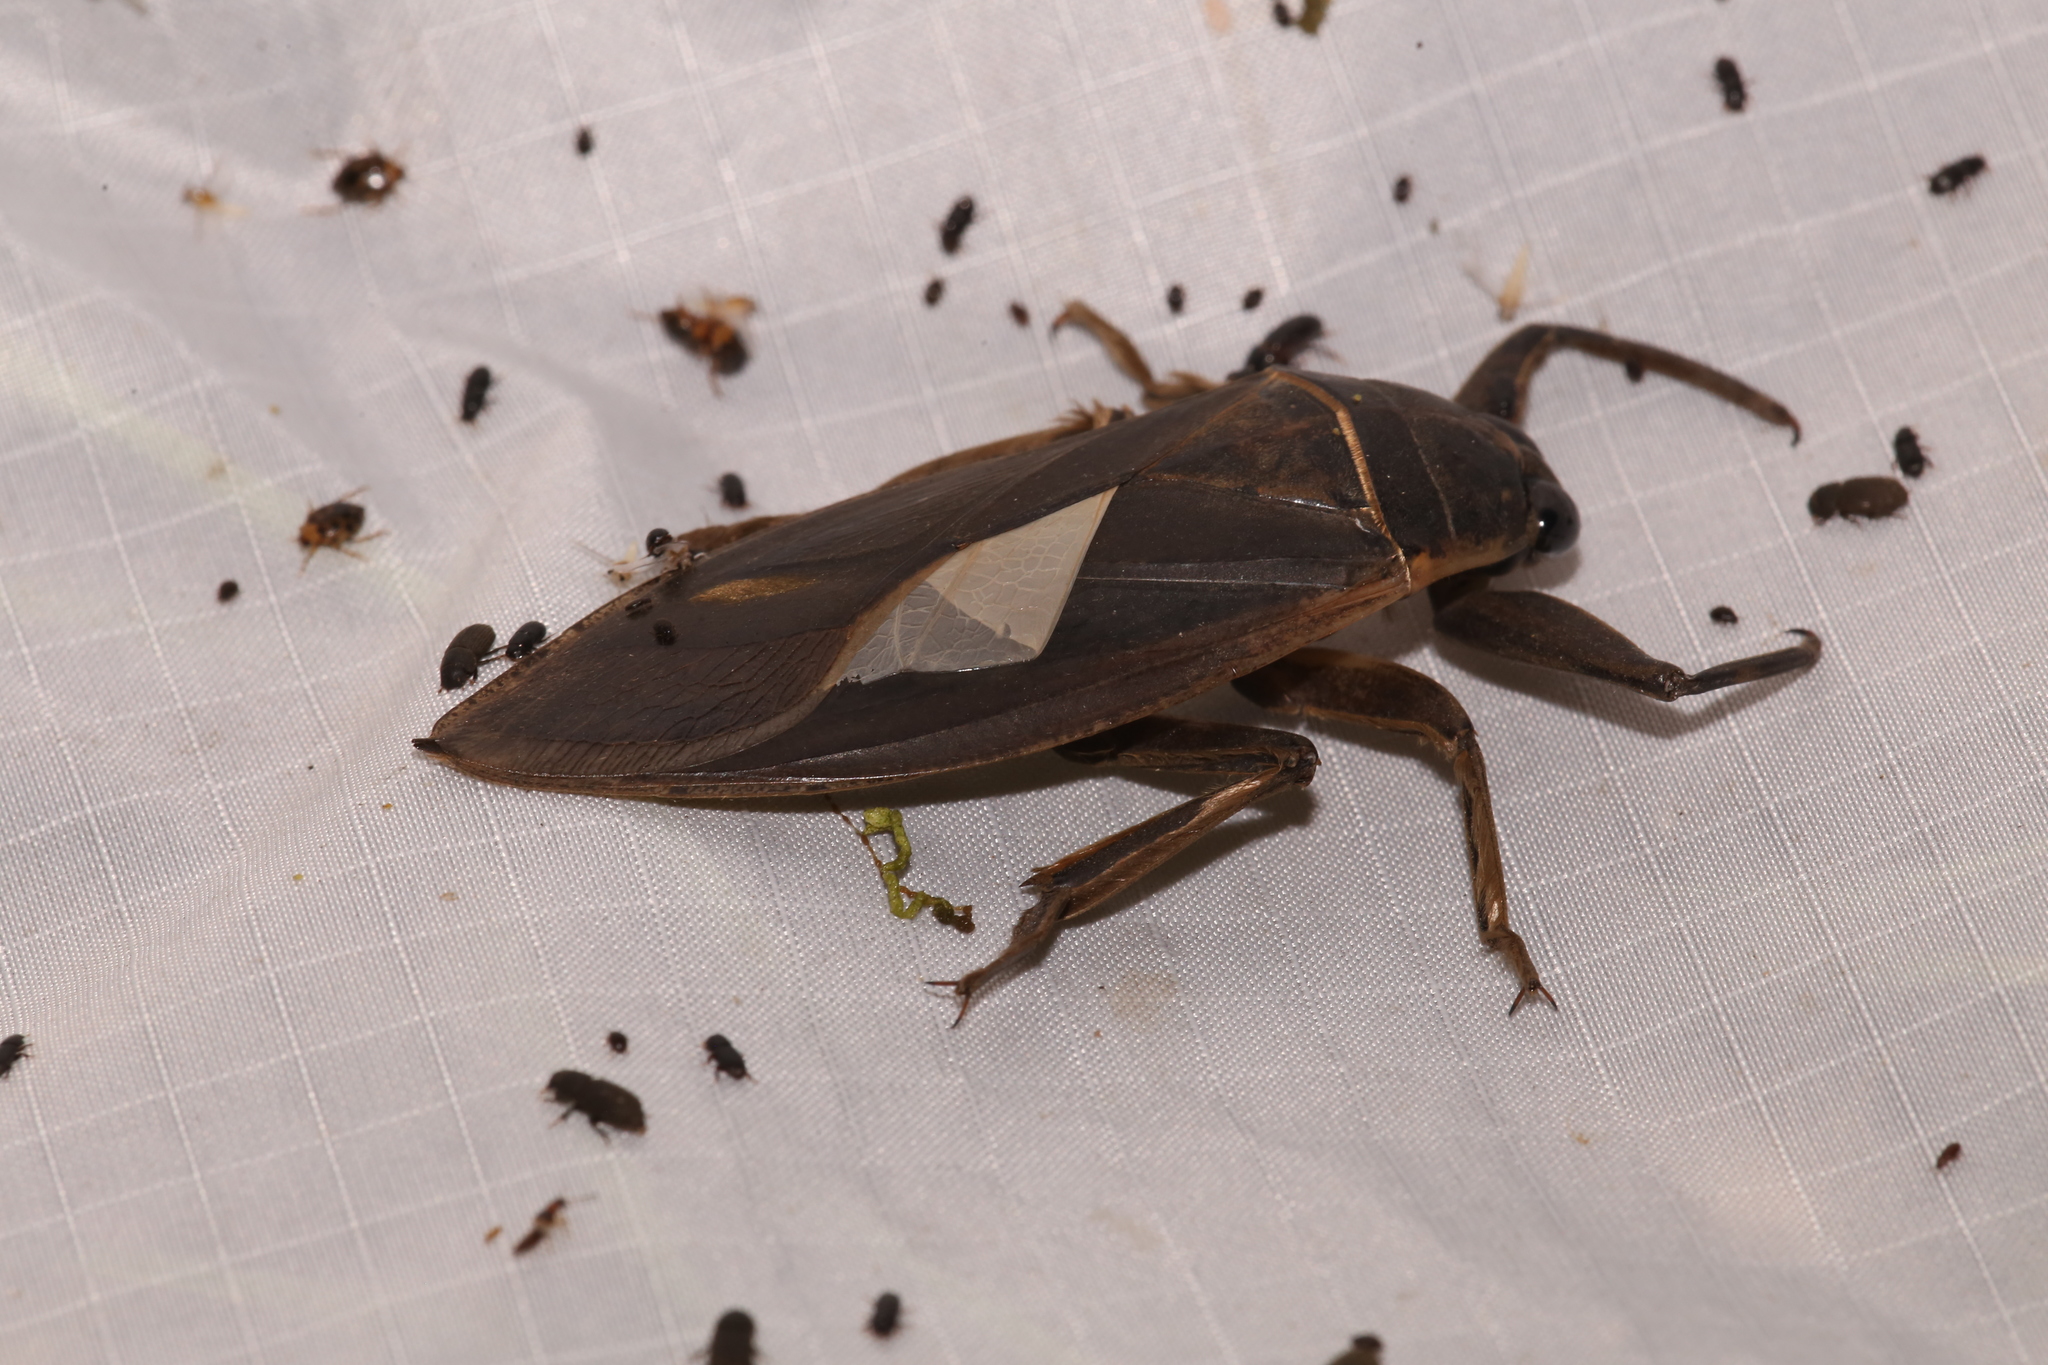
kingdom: Animalia
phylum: Arthropoda
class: Insecta
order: Hemiptera
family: Belostomatidae
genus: Benacus
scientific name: Benacus griseus
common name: Eastern toe-biter
